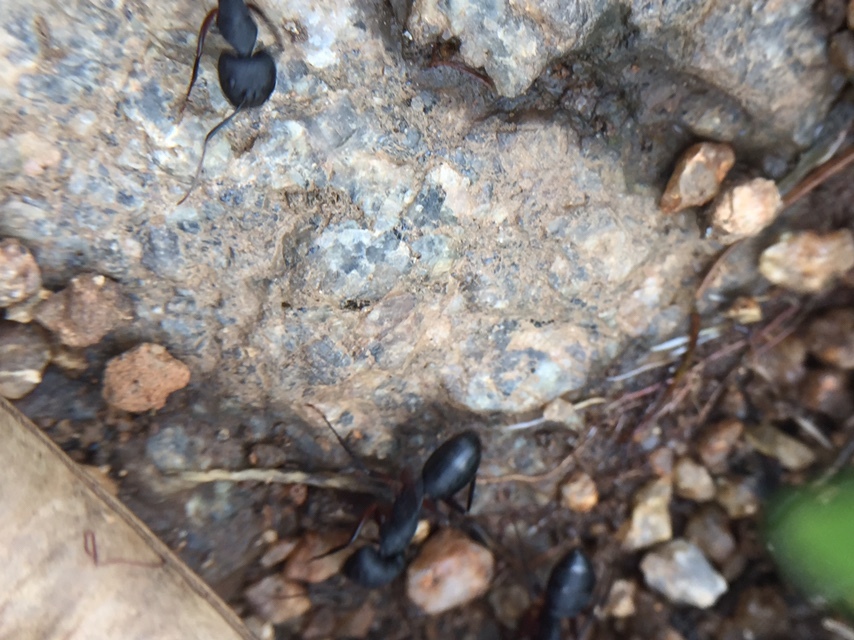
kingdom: Animalia
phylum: Arthropoda
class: Insecta
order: Hymenoptera
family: Formicidae
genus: Camponotus
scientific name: Camponotus compressus
